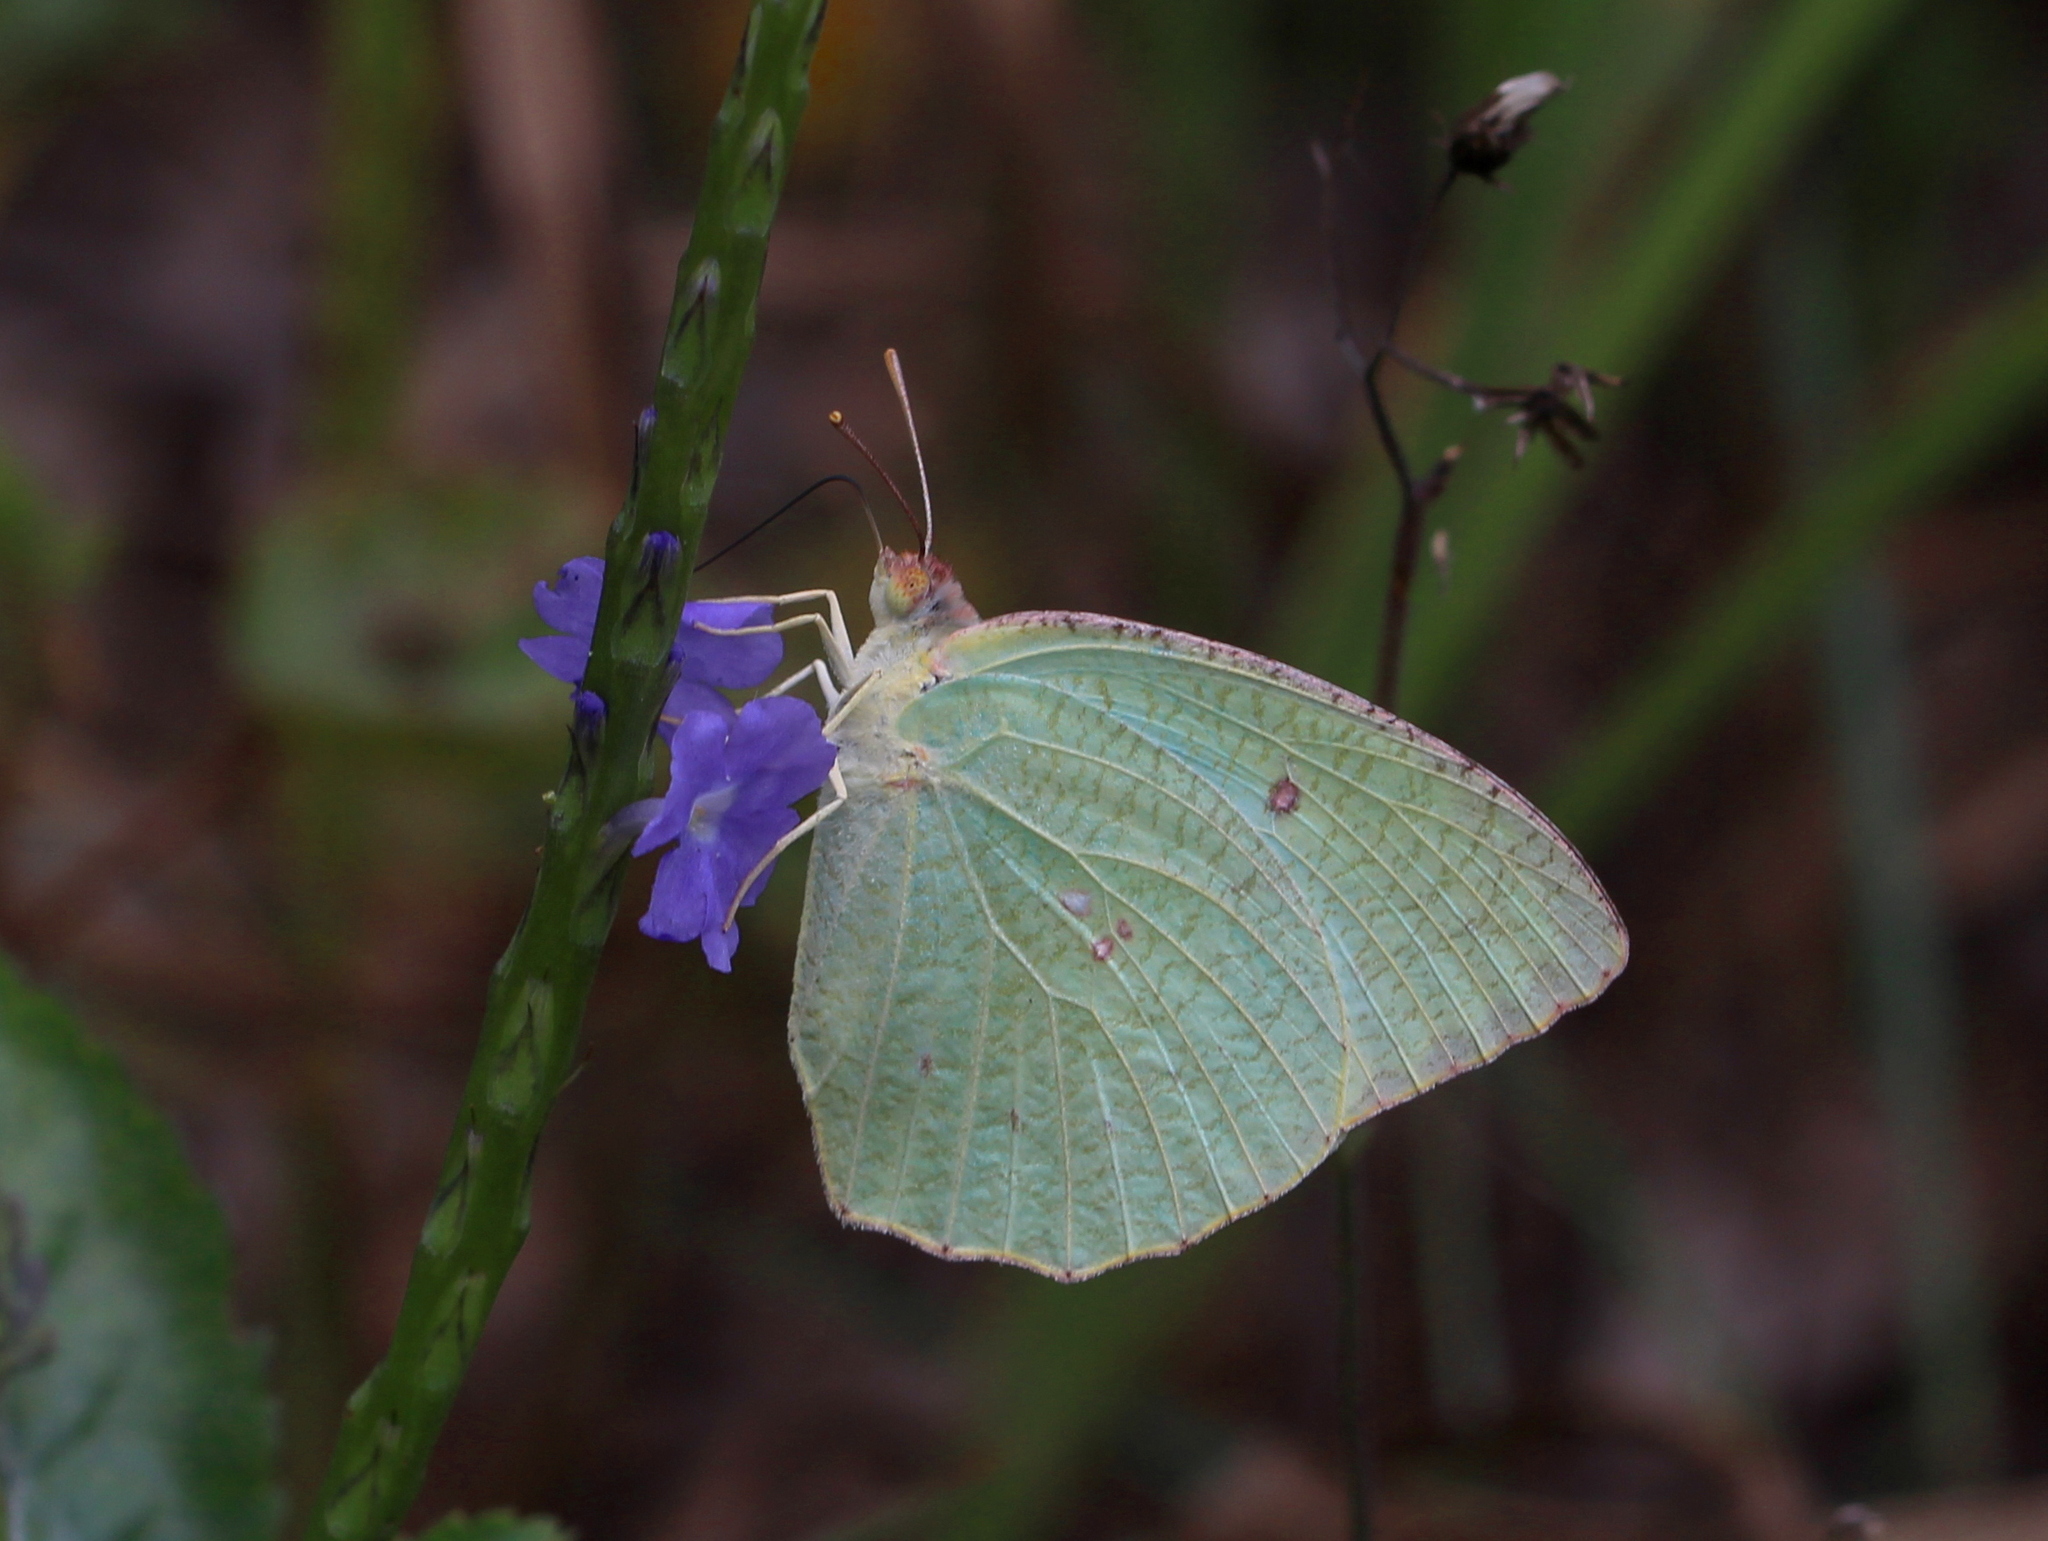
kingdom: Animalia
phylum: Arthropoda
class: Insecta
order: Lepidoptera
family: Pieridae
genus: Catopsilia
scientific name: Catopsilia pyranthe
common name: Mottled emigrant
